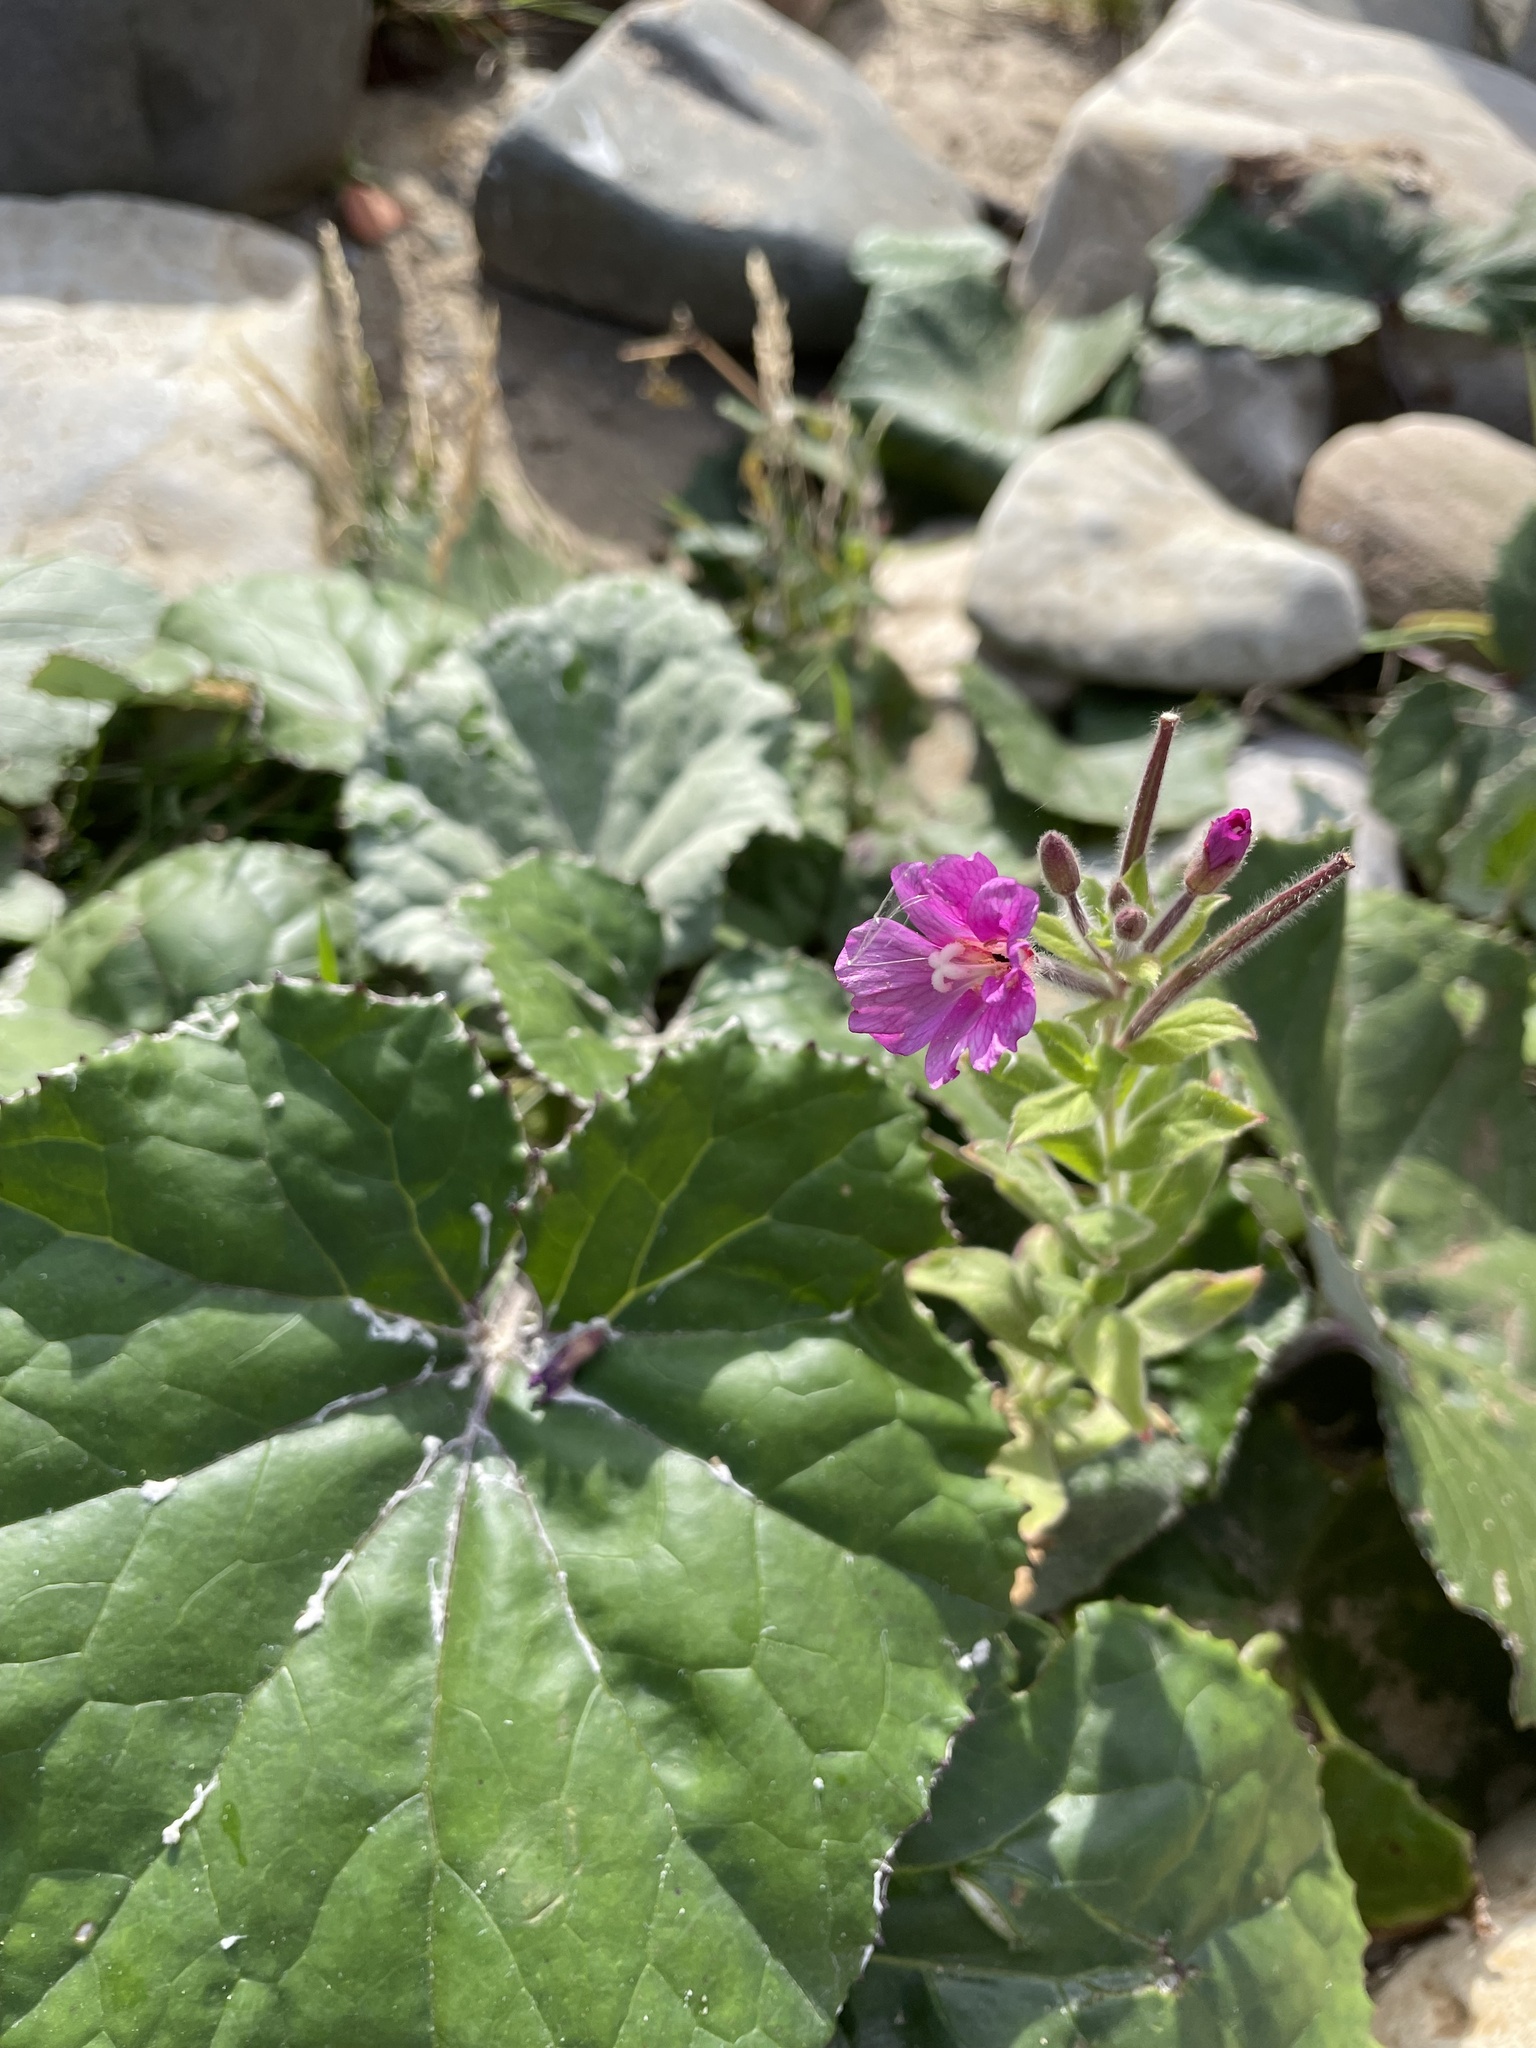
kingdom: Plantae
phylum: Tracheophyta
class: Magnoliopsida
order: Myrtales
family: Onagraceae
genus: Epilobium
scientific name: Epilobium hirsutum
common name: Great willowherb
